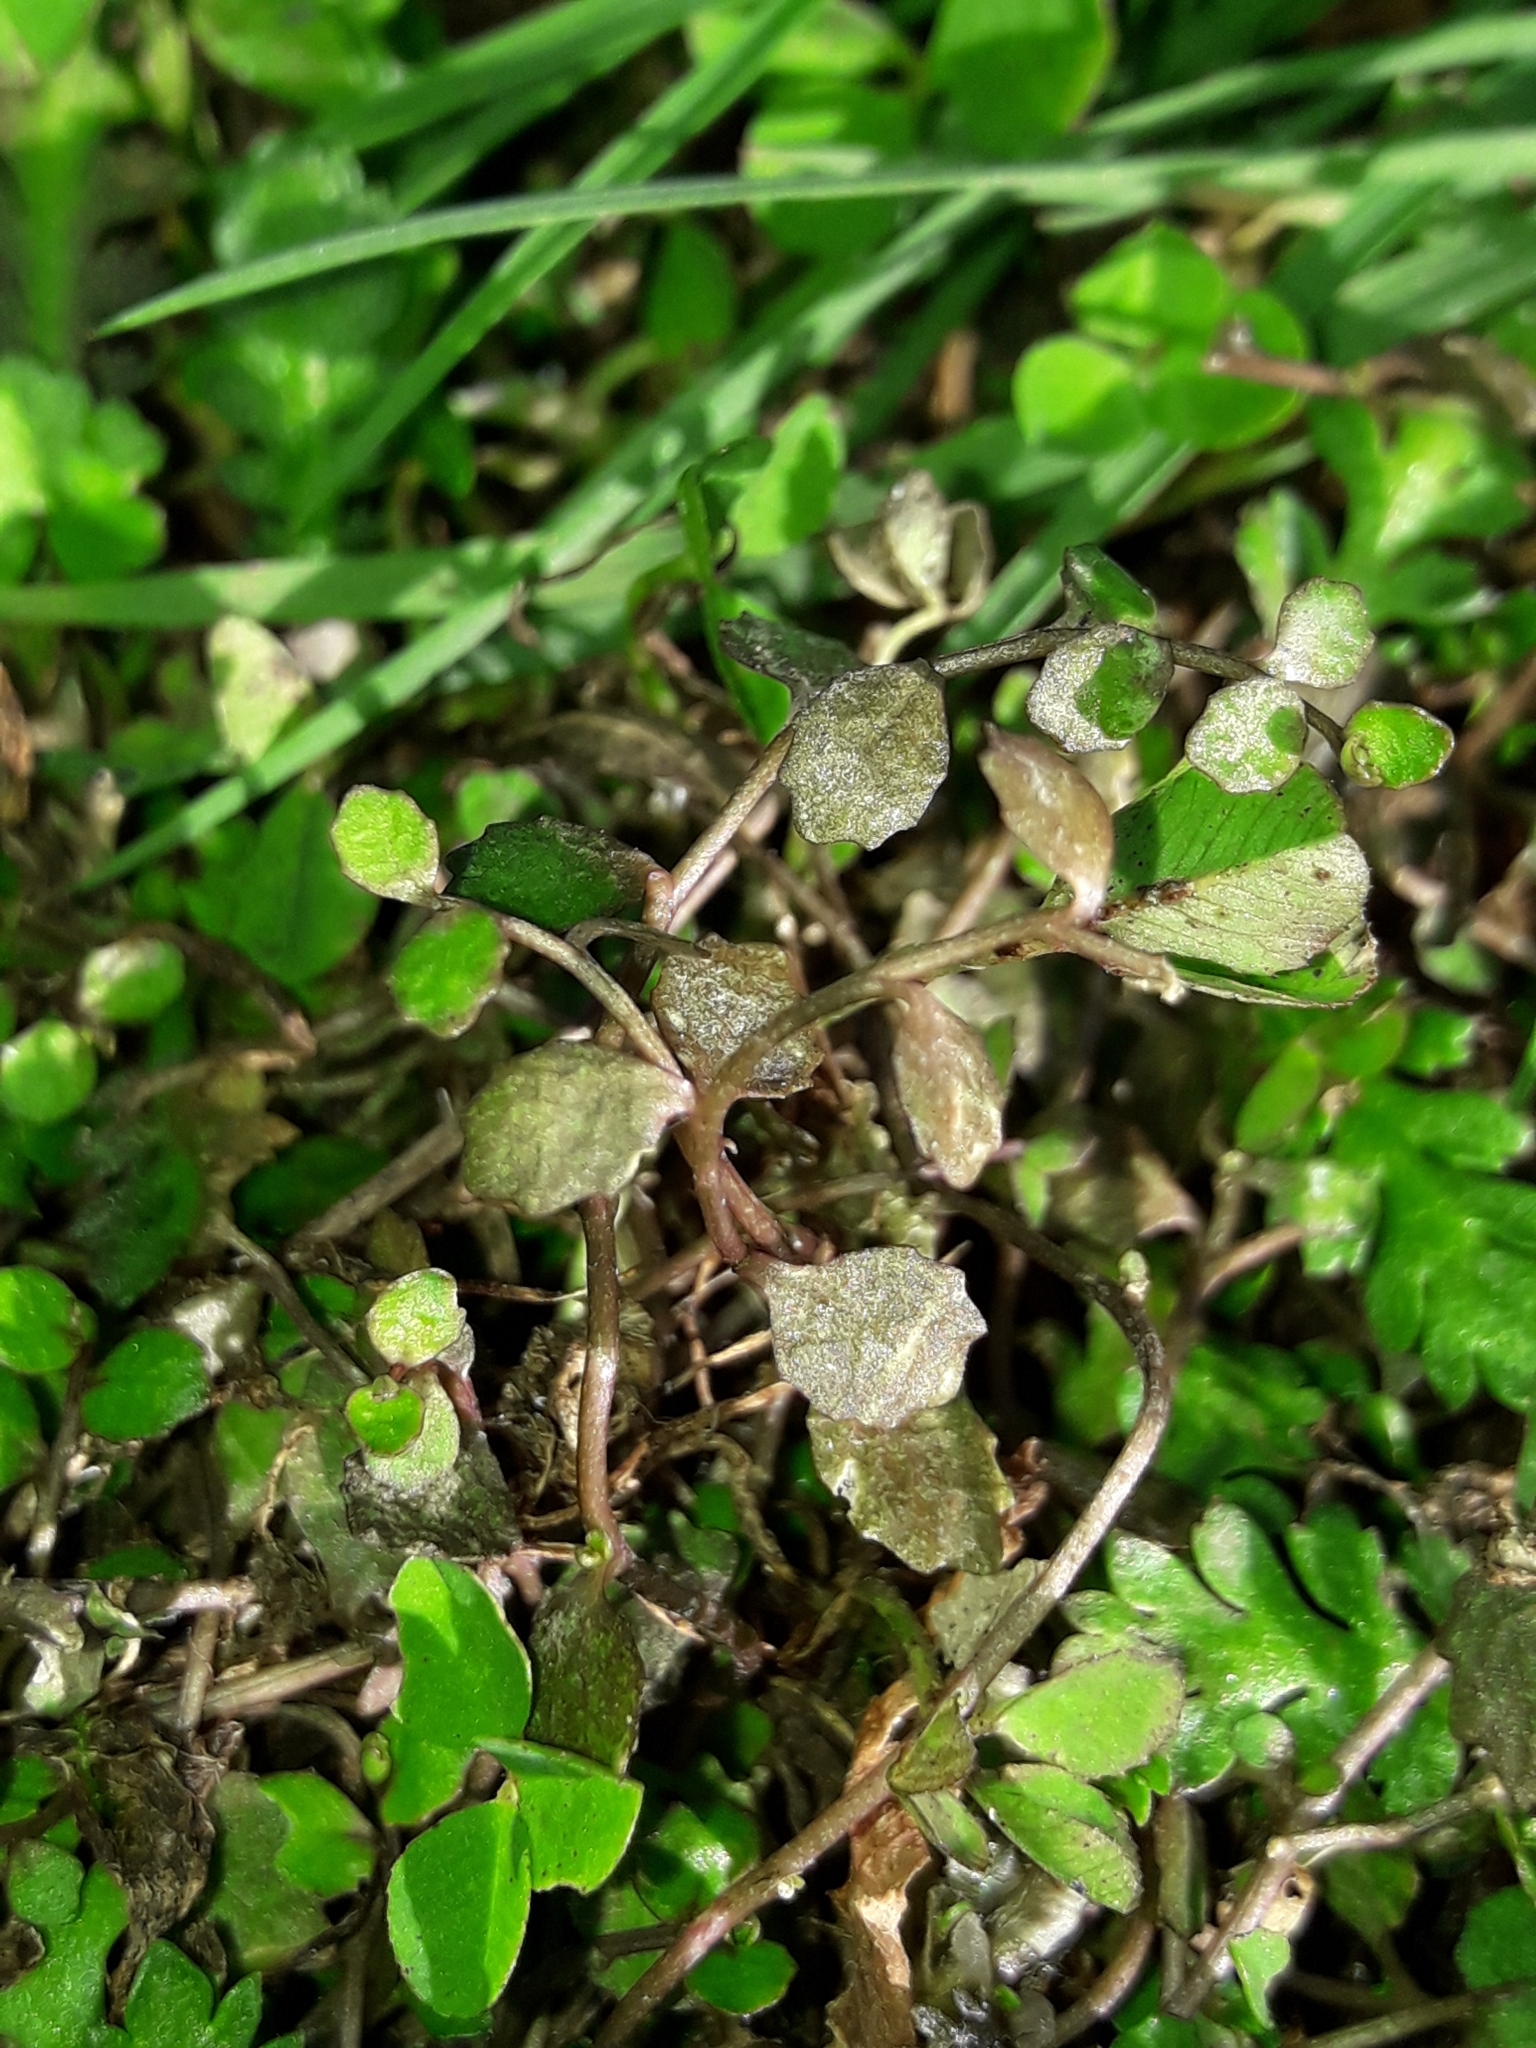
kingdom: Plantae
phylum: Tracheophyta
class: Magnoliopsida
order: Asterales
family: Campanulaceae
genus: Lobelia
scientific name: Lobelia perpusilla
